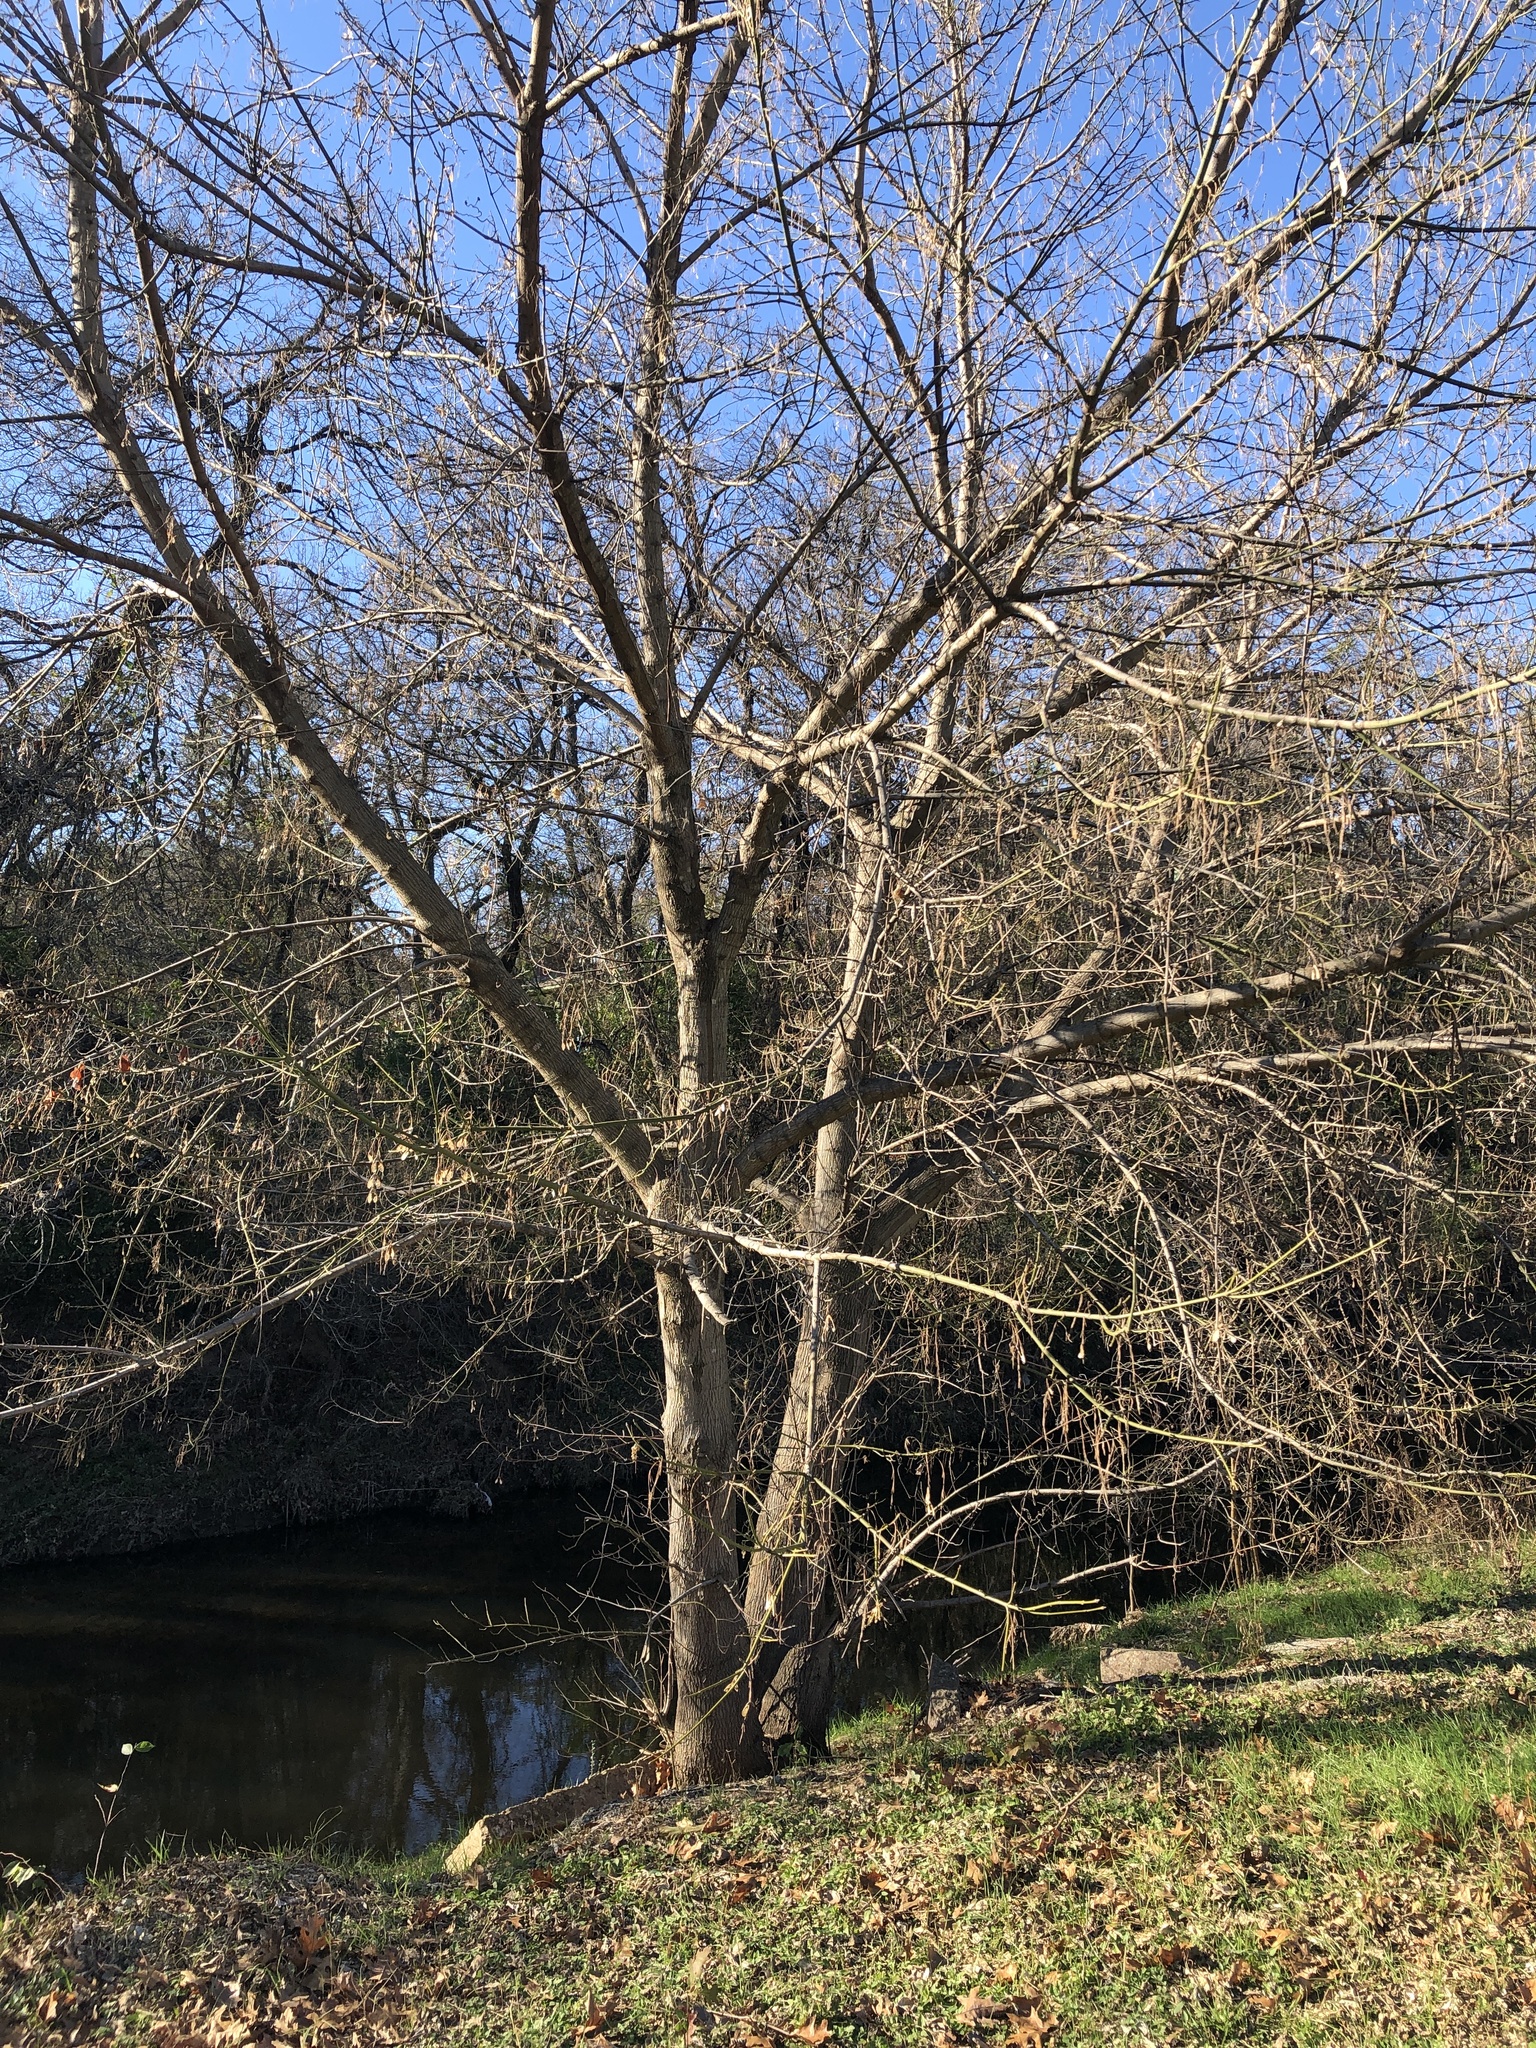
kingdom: Plantae
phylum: Tracheophyta
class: Magnoliopsida
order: Sapindales
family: Sapindaceae
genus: Acer
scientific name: Acer negundo
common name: Ashleaf maple
